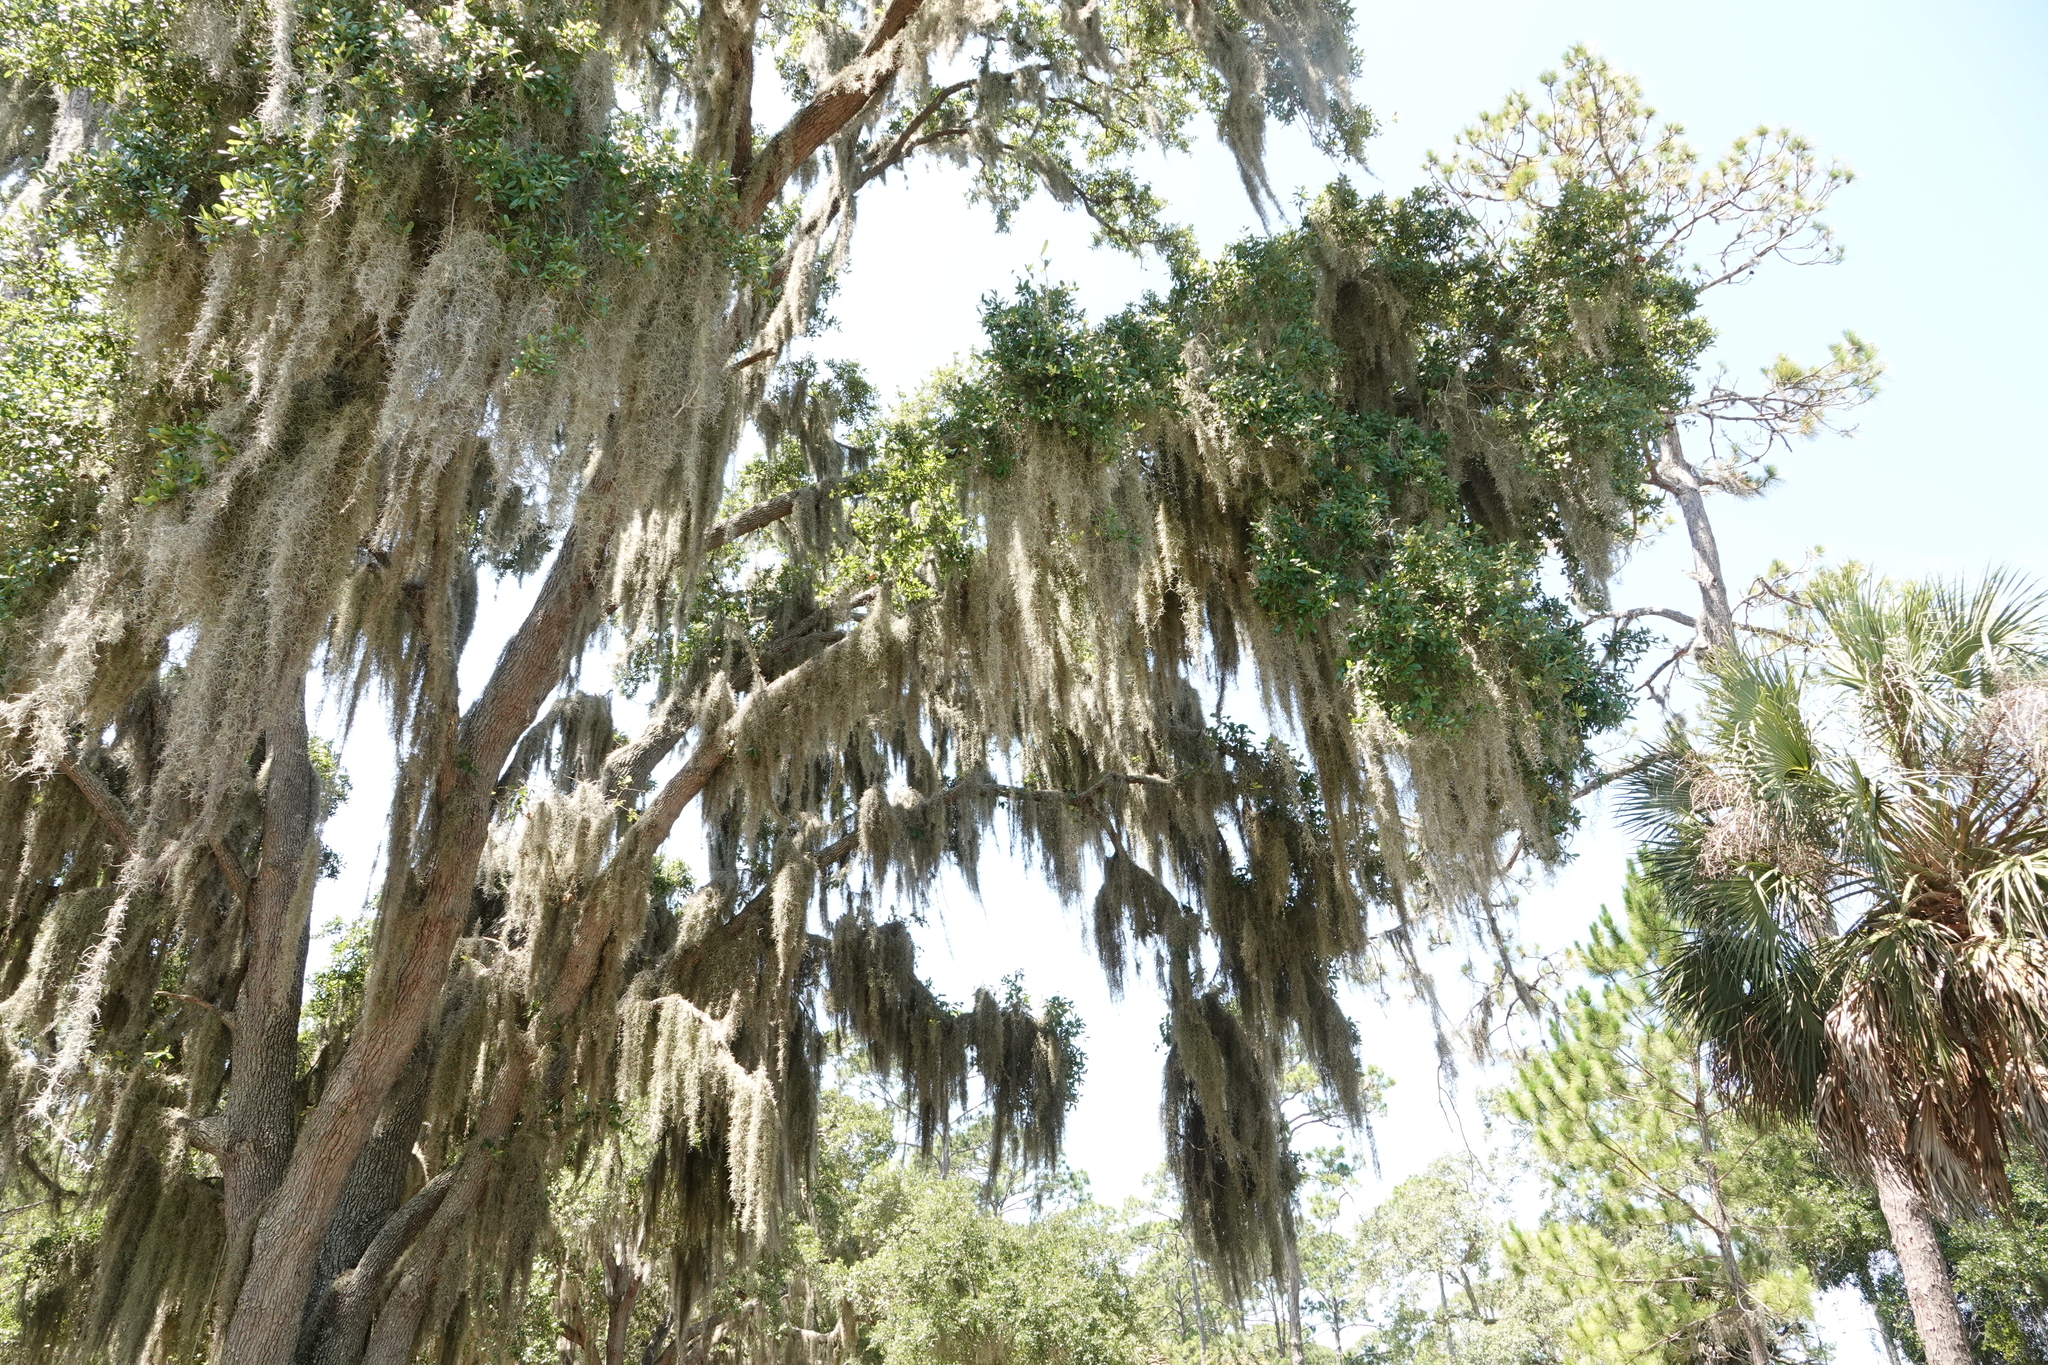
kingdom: Plantae
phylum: Tracheophyta
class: Liliopsida
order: Poales
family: Bromeliaceae
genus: Tillandsia
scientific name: Tillandsia usneoides
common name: Spanish moss
